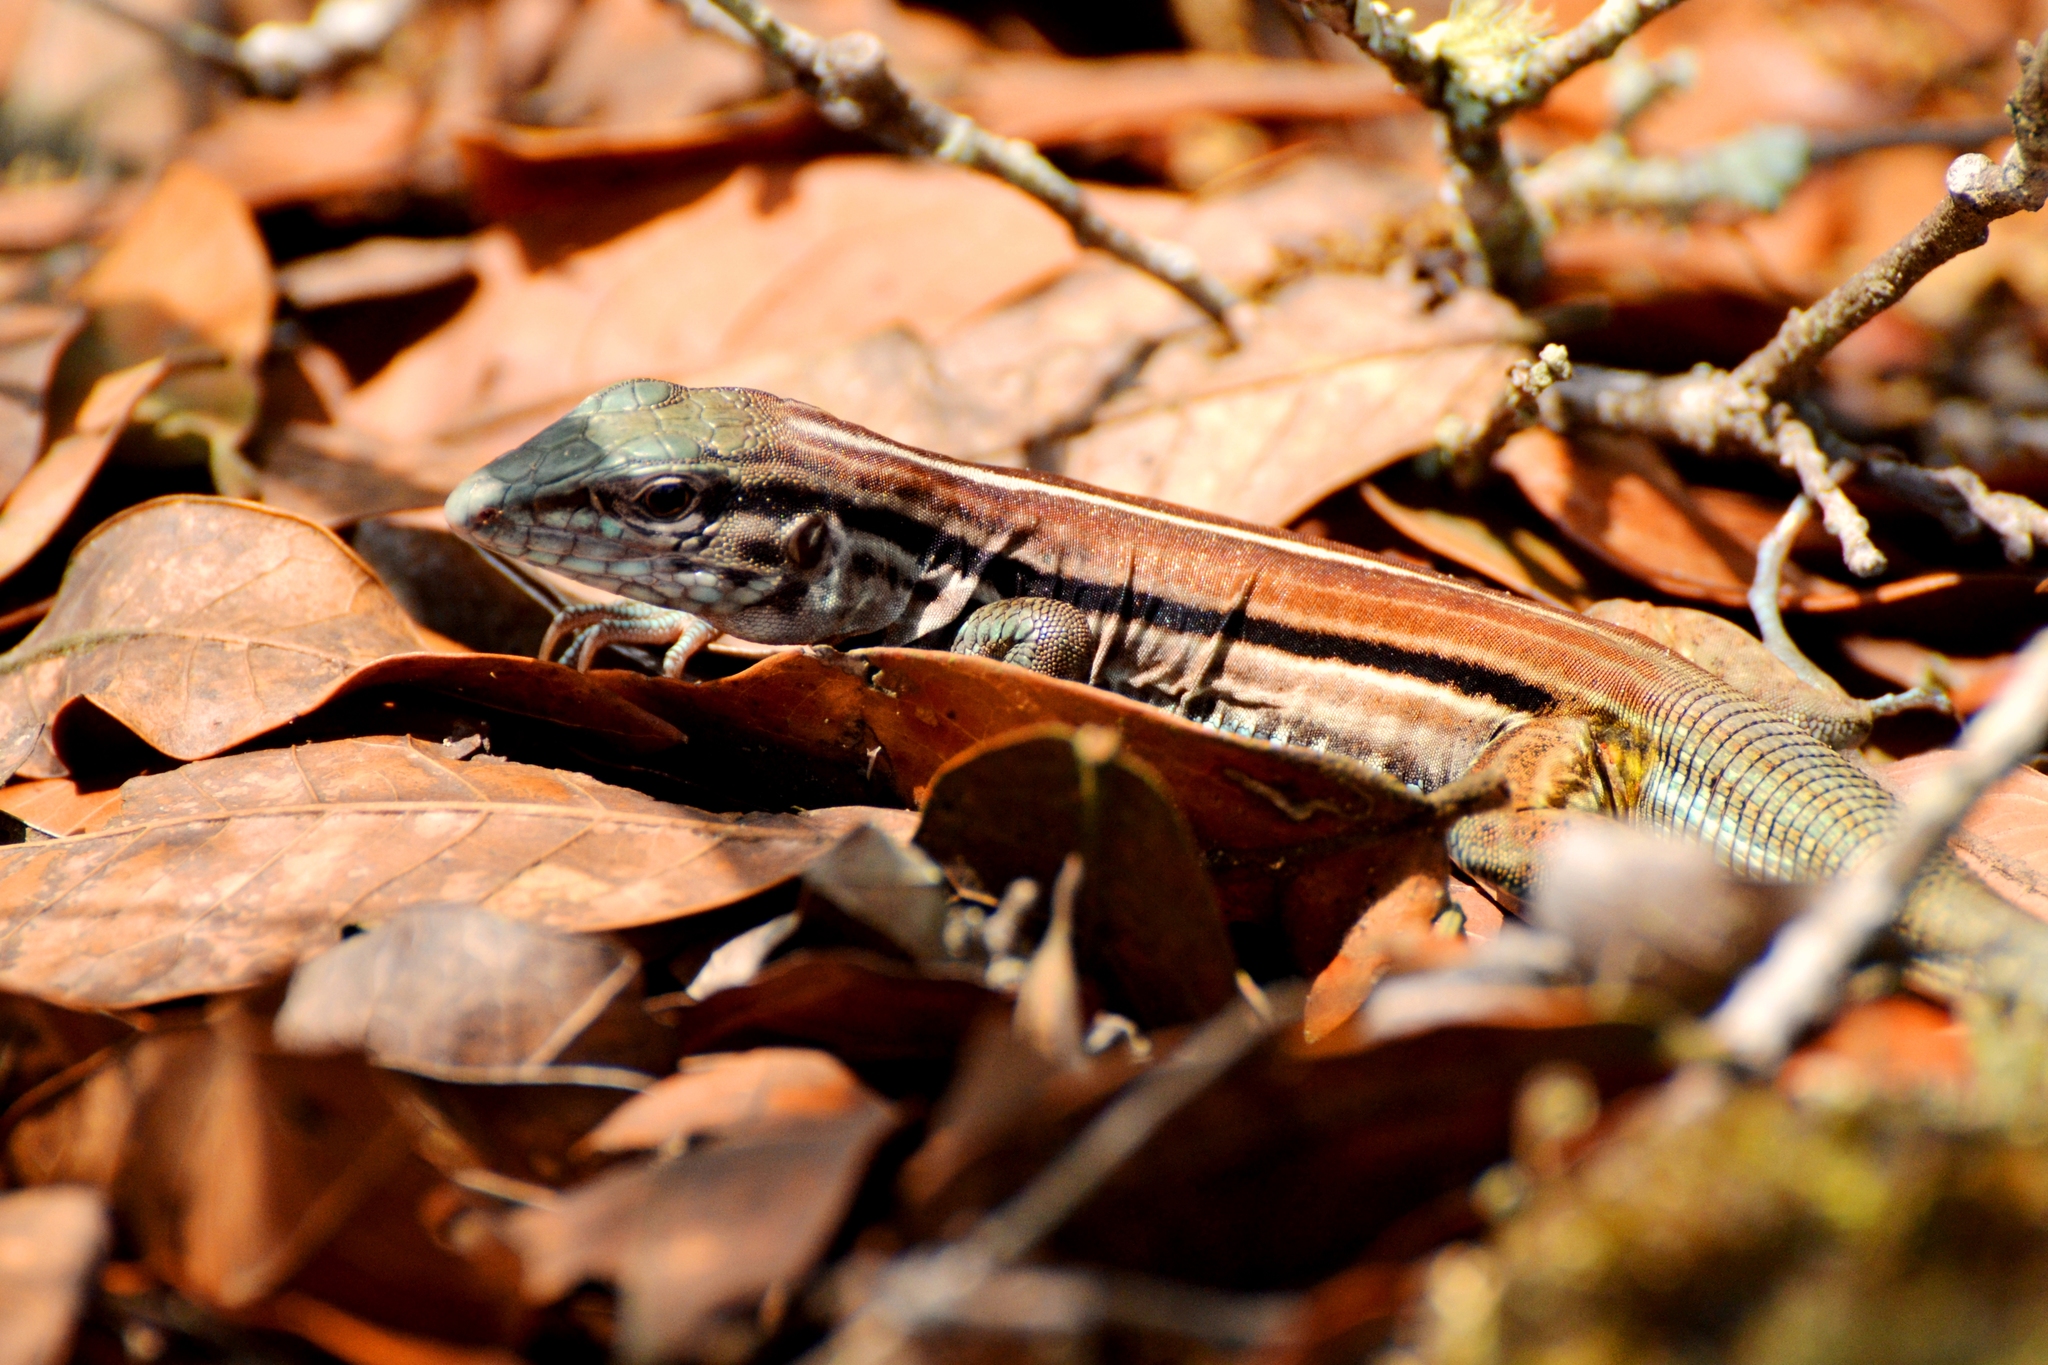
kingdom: Animalia
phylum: Chordata
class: Squamata
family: Teiidae
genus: Aspidoscelis
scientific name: Aspidoscelis deppii
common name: Blackbelly racerunner
